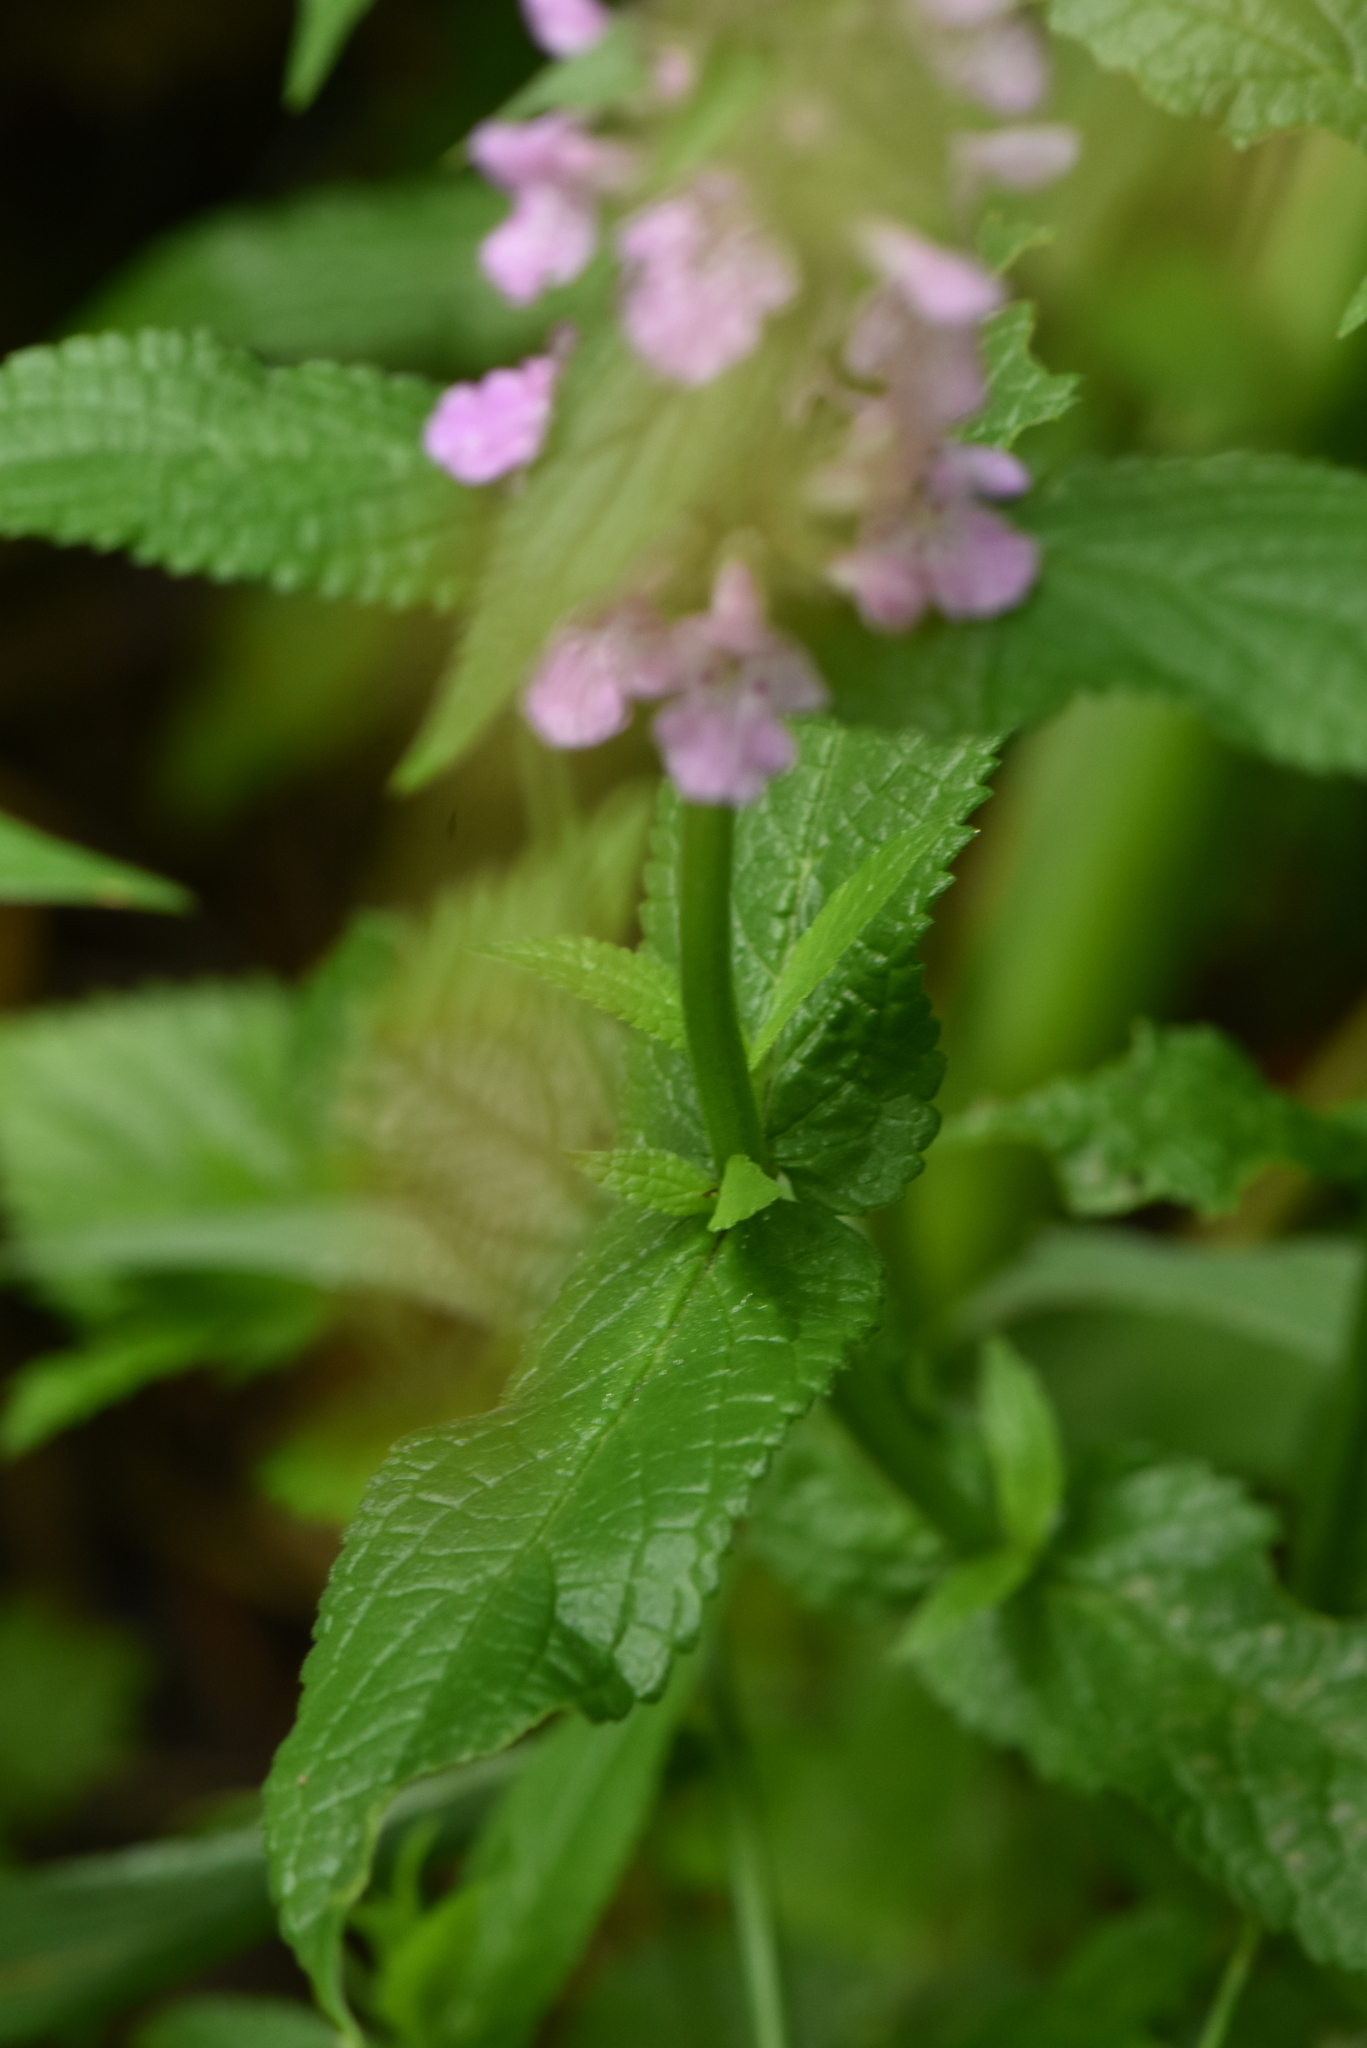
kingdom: Plantae
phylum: Tracheophyta
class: Magnoliopsida
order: Lamiales
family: Lamiaceae
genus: Stachys
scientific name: Stachys palustris
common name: Marsh woundwort
